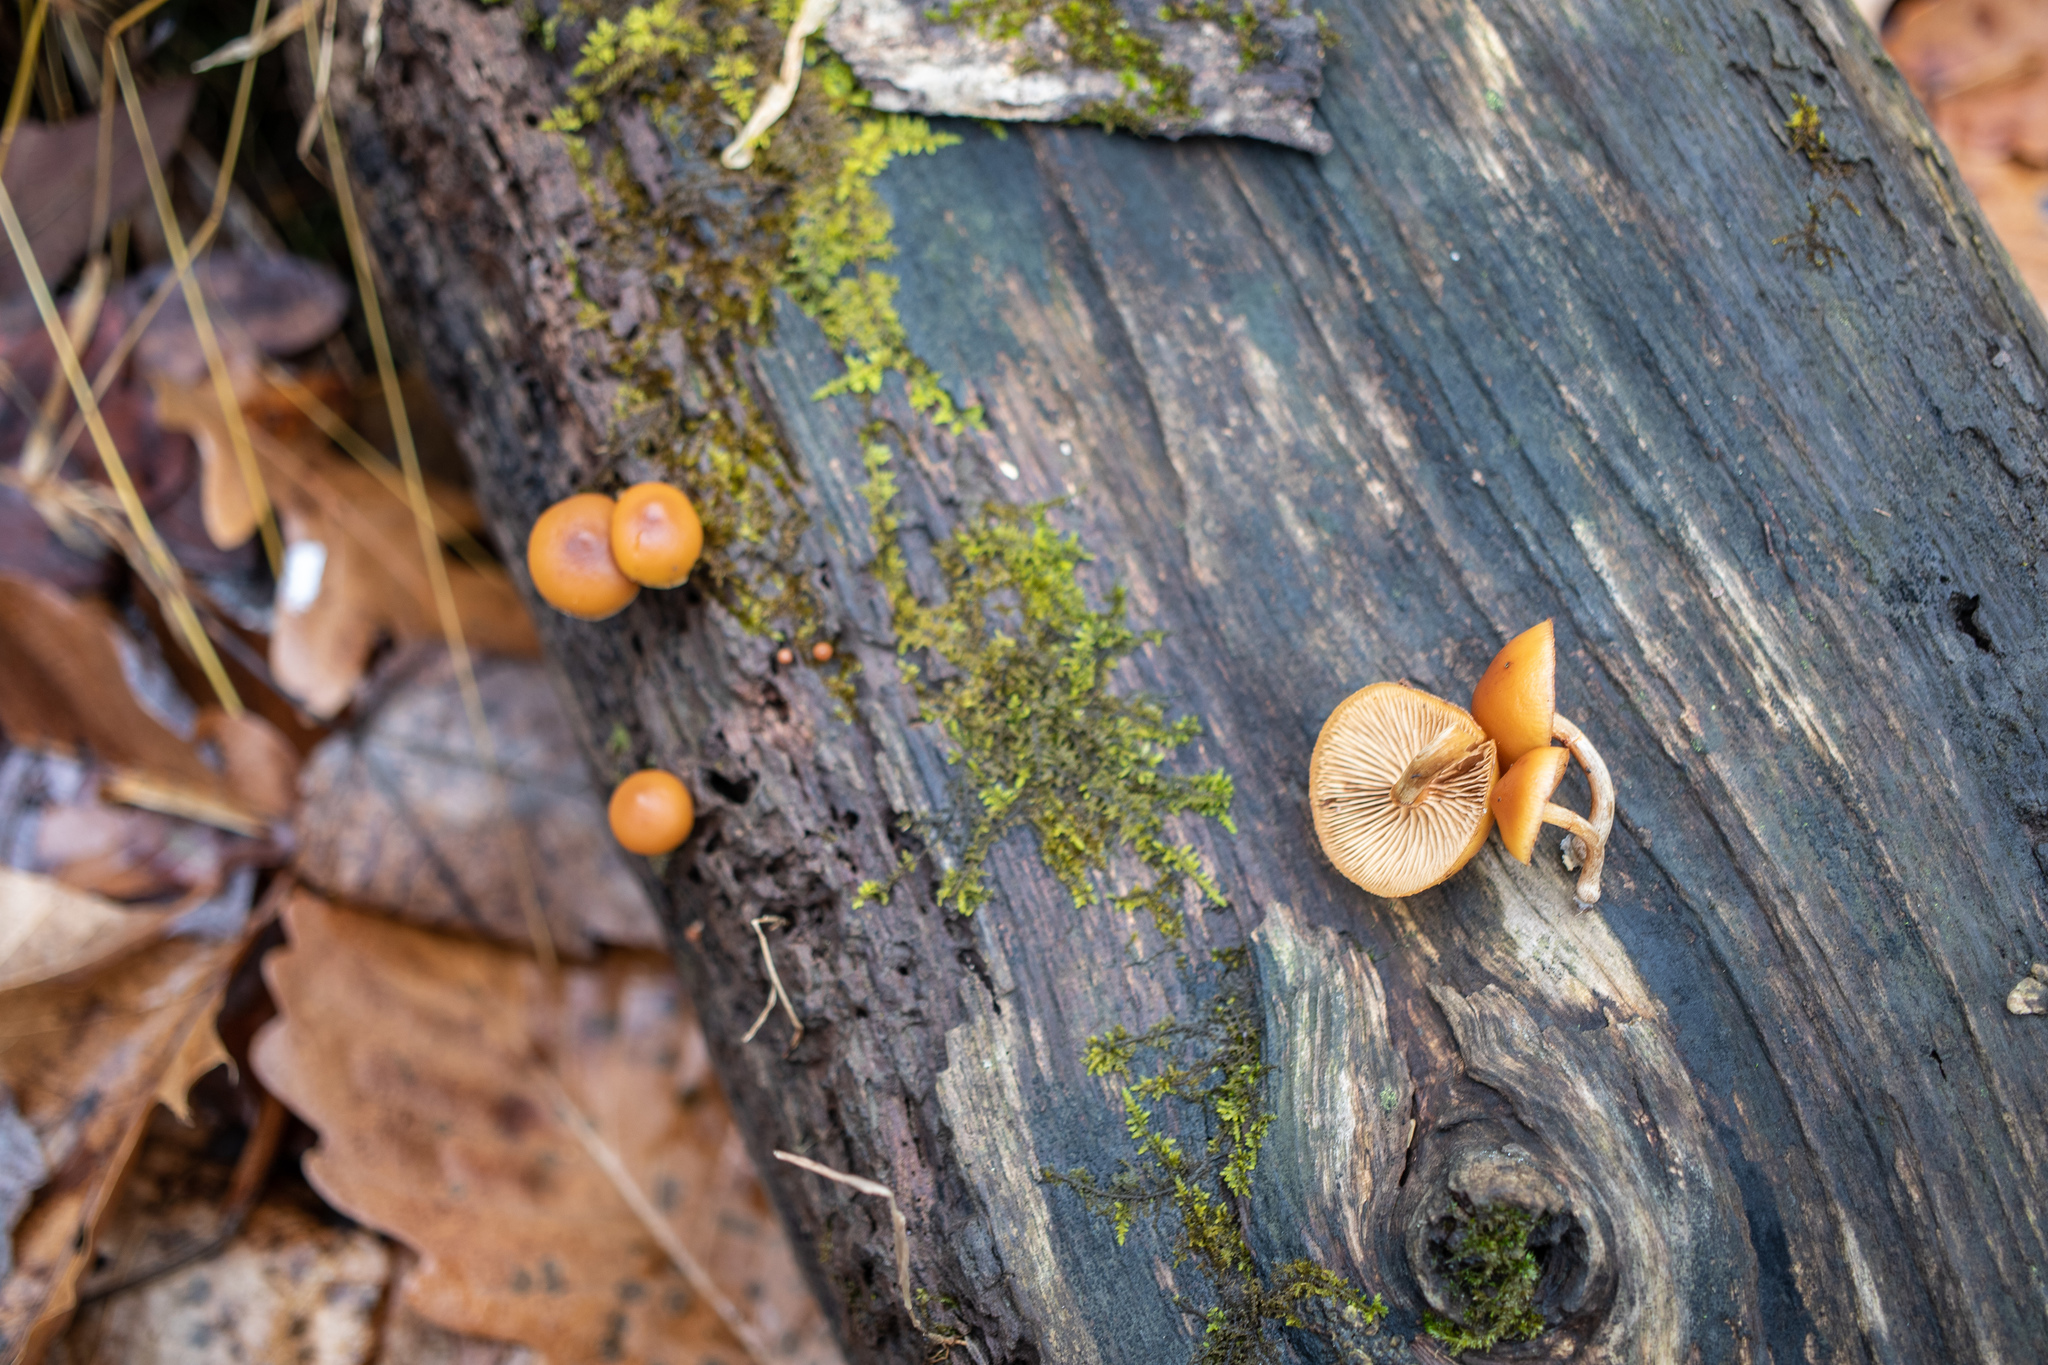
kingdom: Fungi
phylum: Basidiomycota
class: Agaricomycetes
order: Agaricales
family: Hymenogastraceae
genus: Galerina
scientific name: Galerina marginata
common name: Funeral bell
